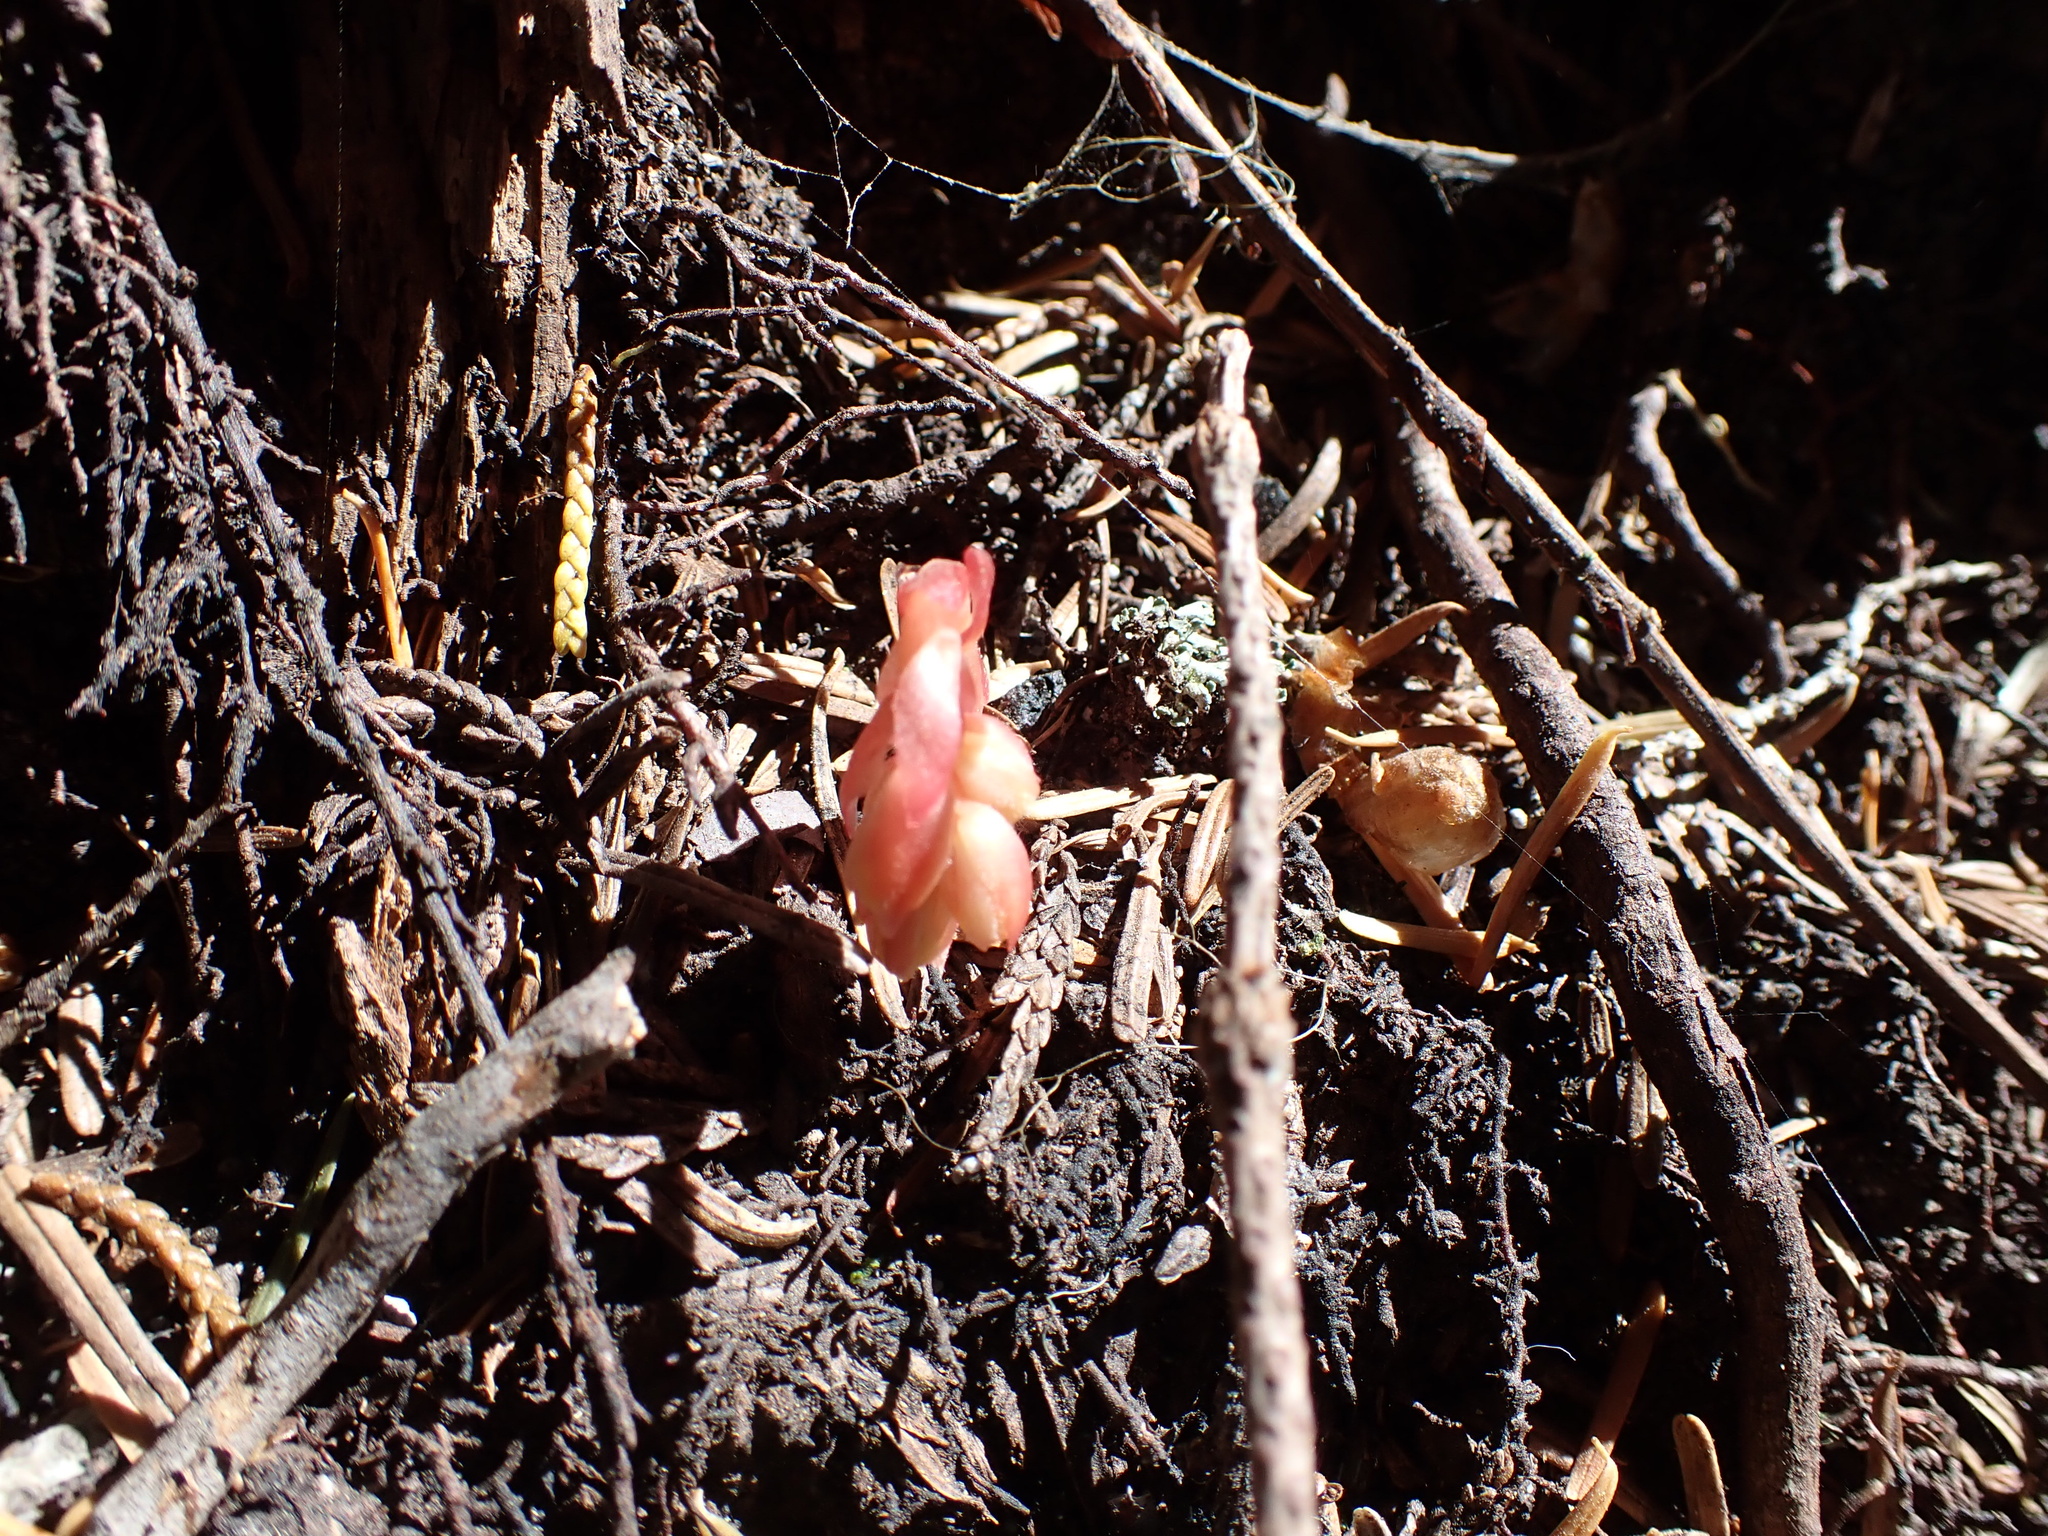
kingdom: Plantae
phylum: Tracheophyta
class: Magnoliopsida
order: Ericales
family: Ericaceae
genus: Hypopitys
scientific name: Hypopitys monotropa
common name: Yellow bird's-nest
